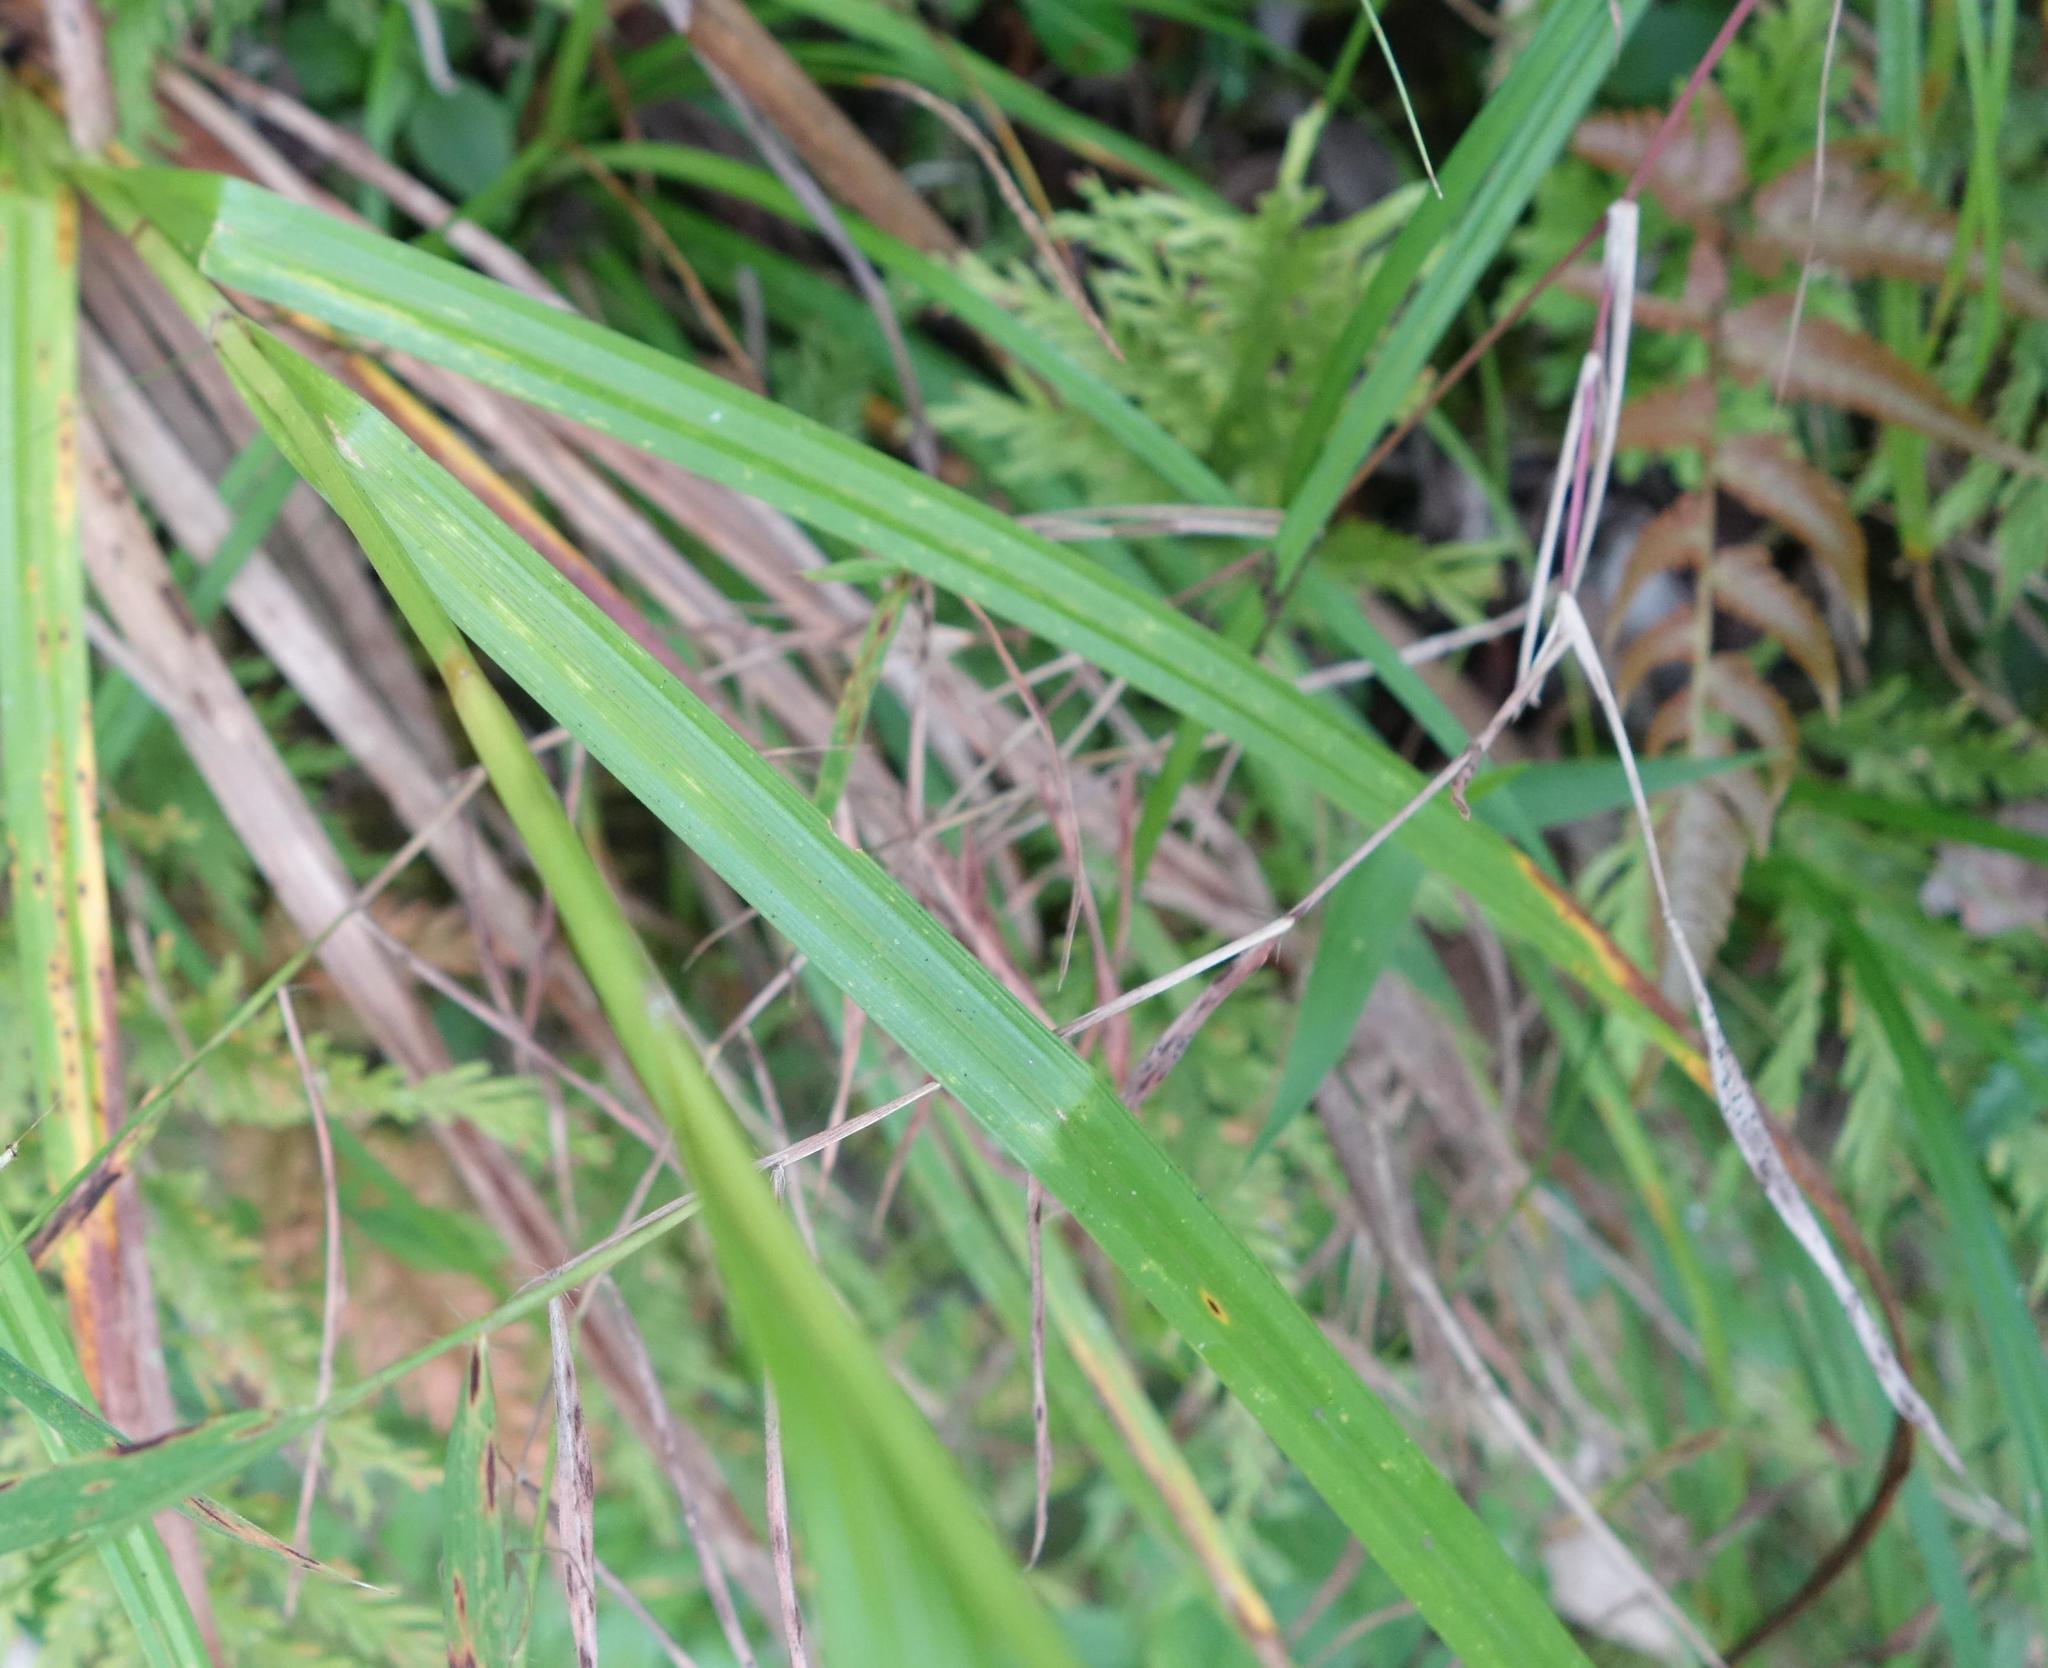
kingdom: Plantae
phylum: Tracheophyta
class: Liliopsida
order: Poales
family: Cyperaceae
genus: Carex
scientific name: Carex cruciata
